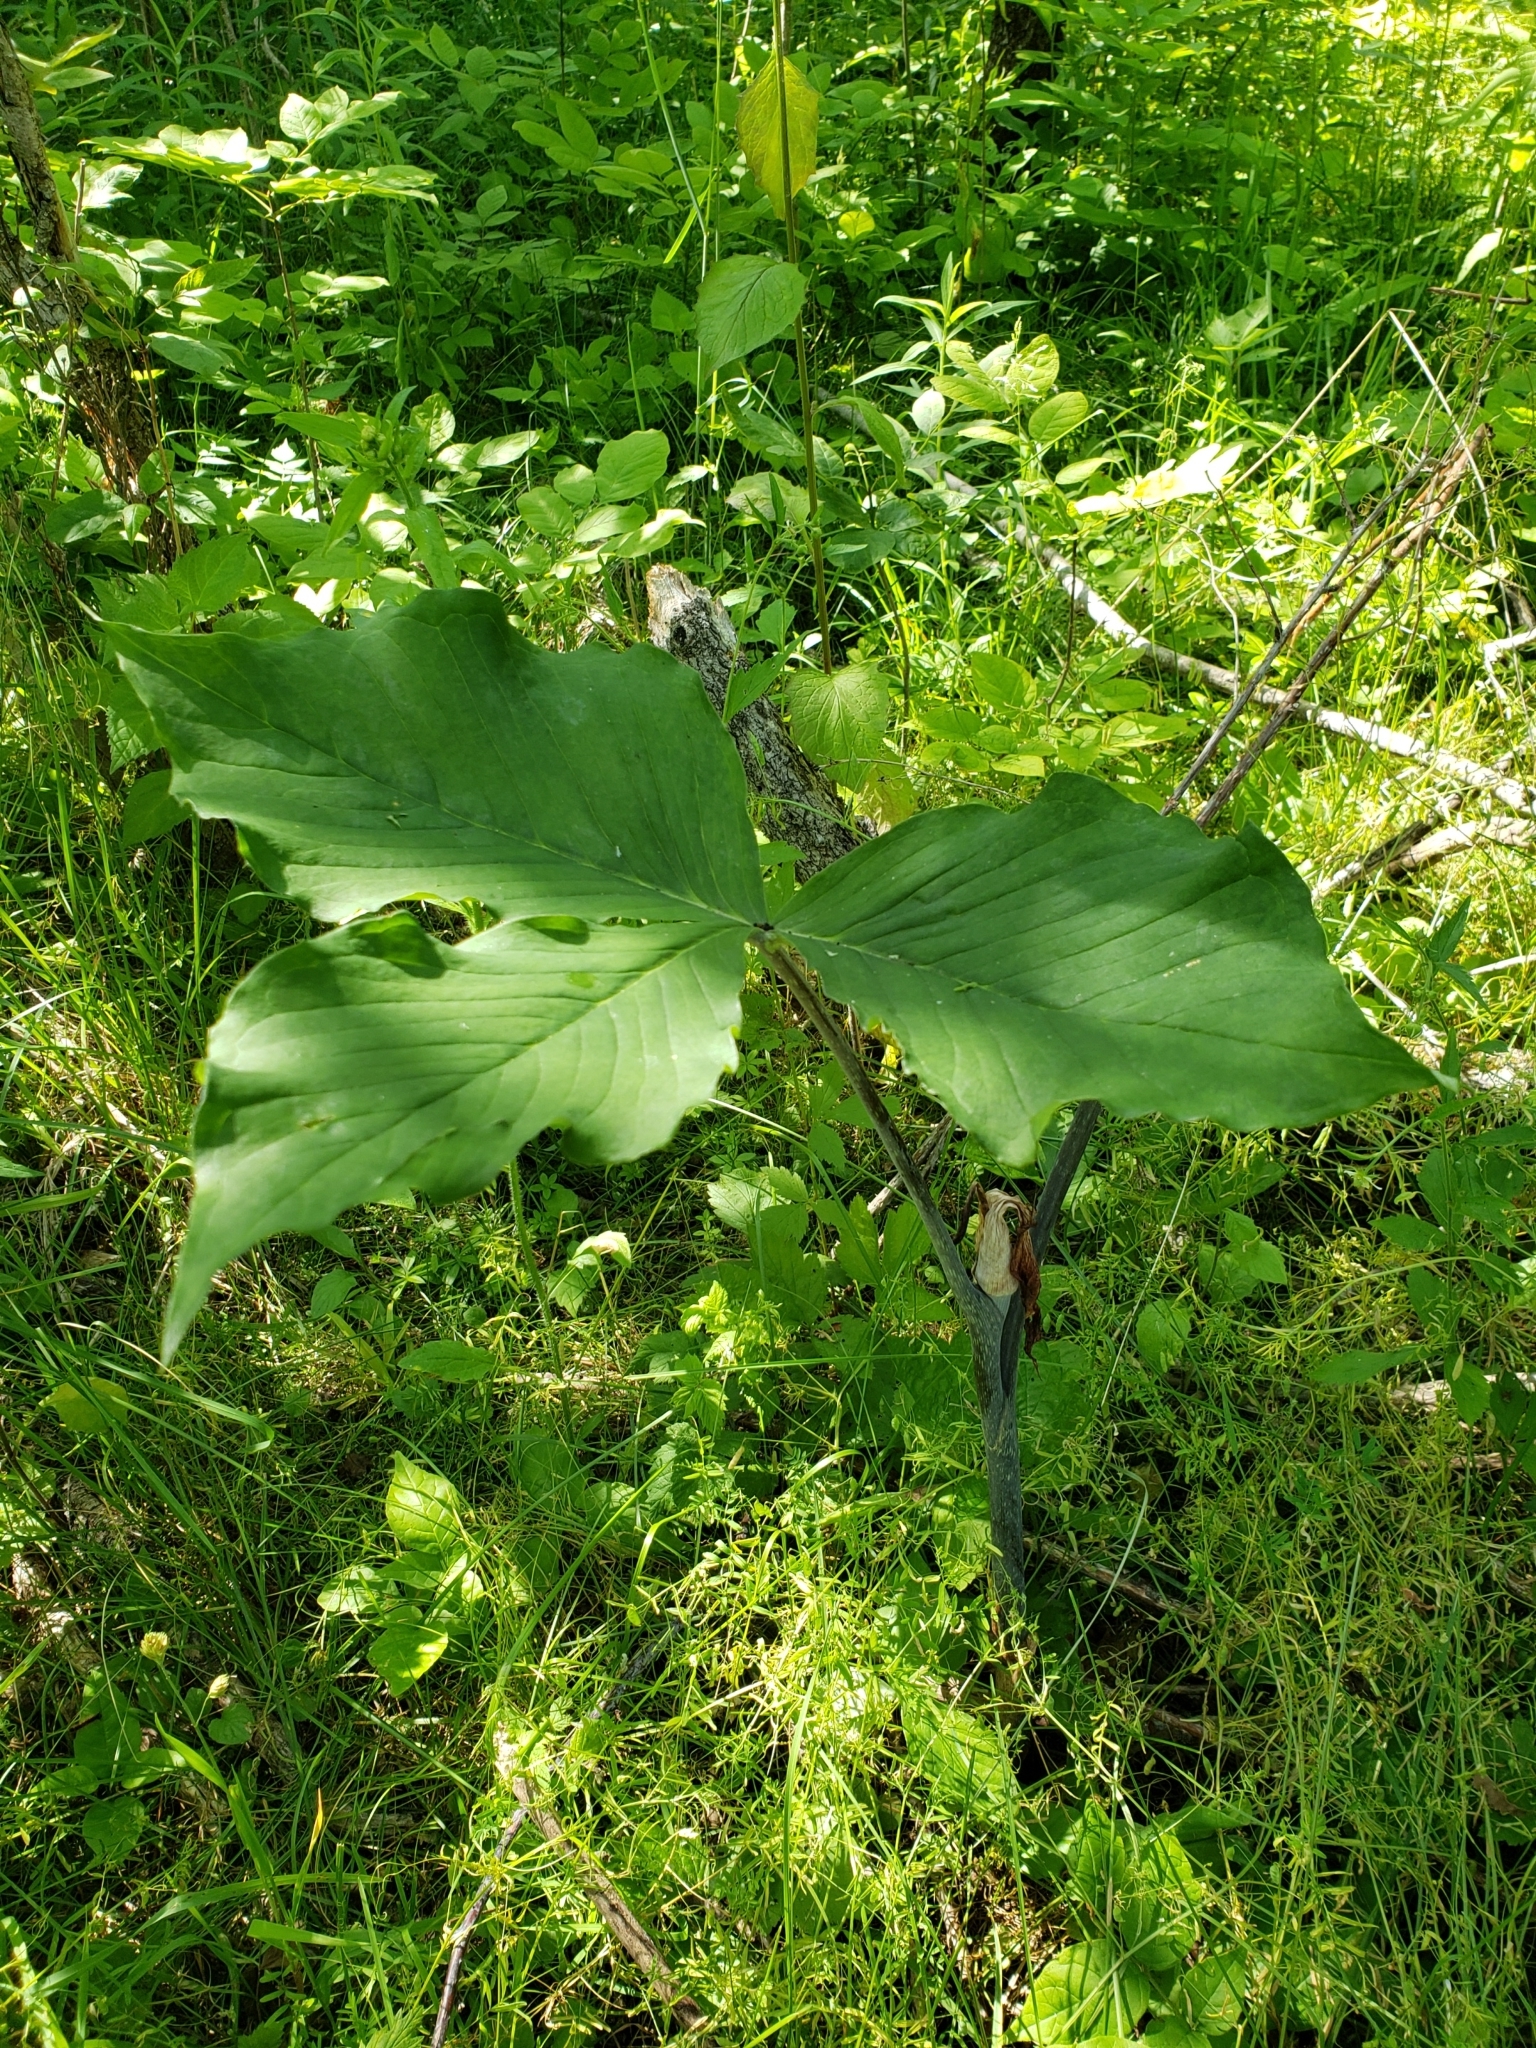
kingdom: Plantae
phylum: Tracheophyta
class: Liliopsida
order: Alismatales
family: Araceae
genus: Arisaema
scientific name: Arisaema triphyllum
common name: Jack-in-the-pulpit
